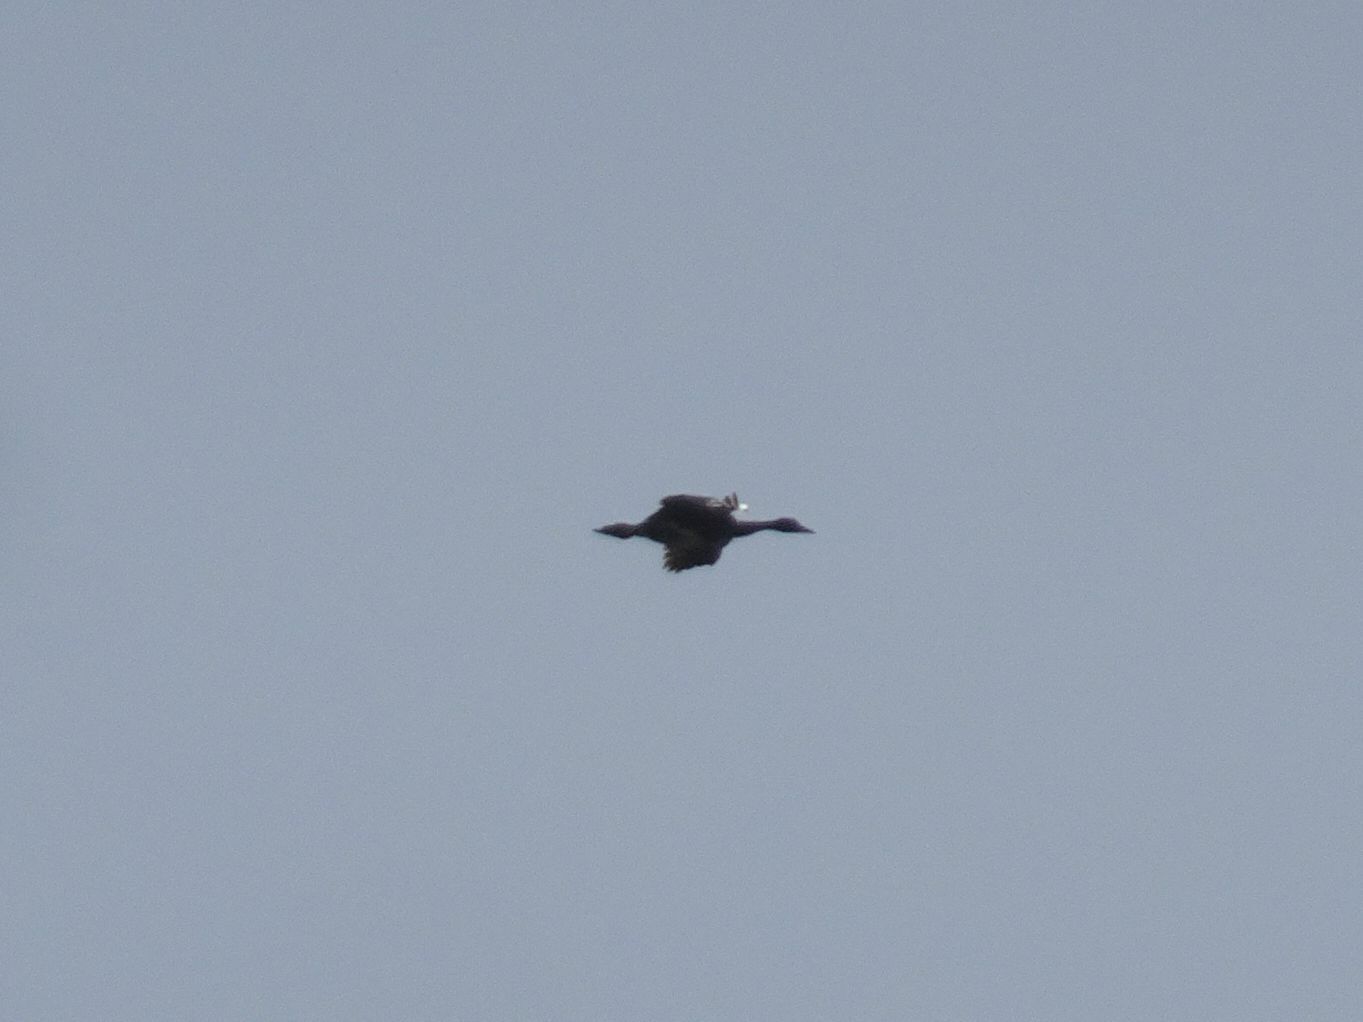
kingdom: Animalia
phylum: Chordata
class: Aves
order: Anseriformes
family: Anatidae
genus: Plectropterus
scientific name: Plectropterus gambensis
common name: Spur-winged goose
